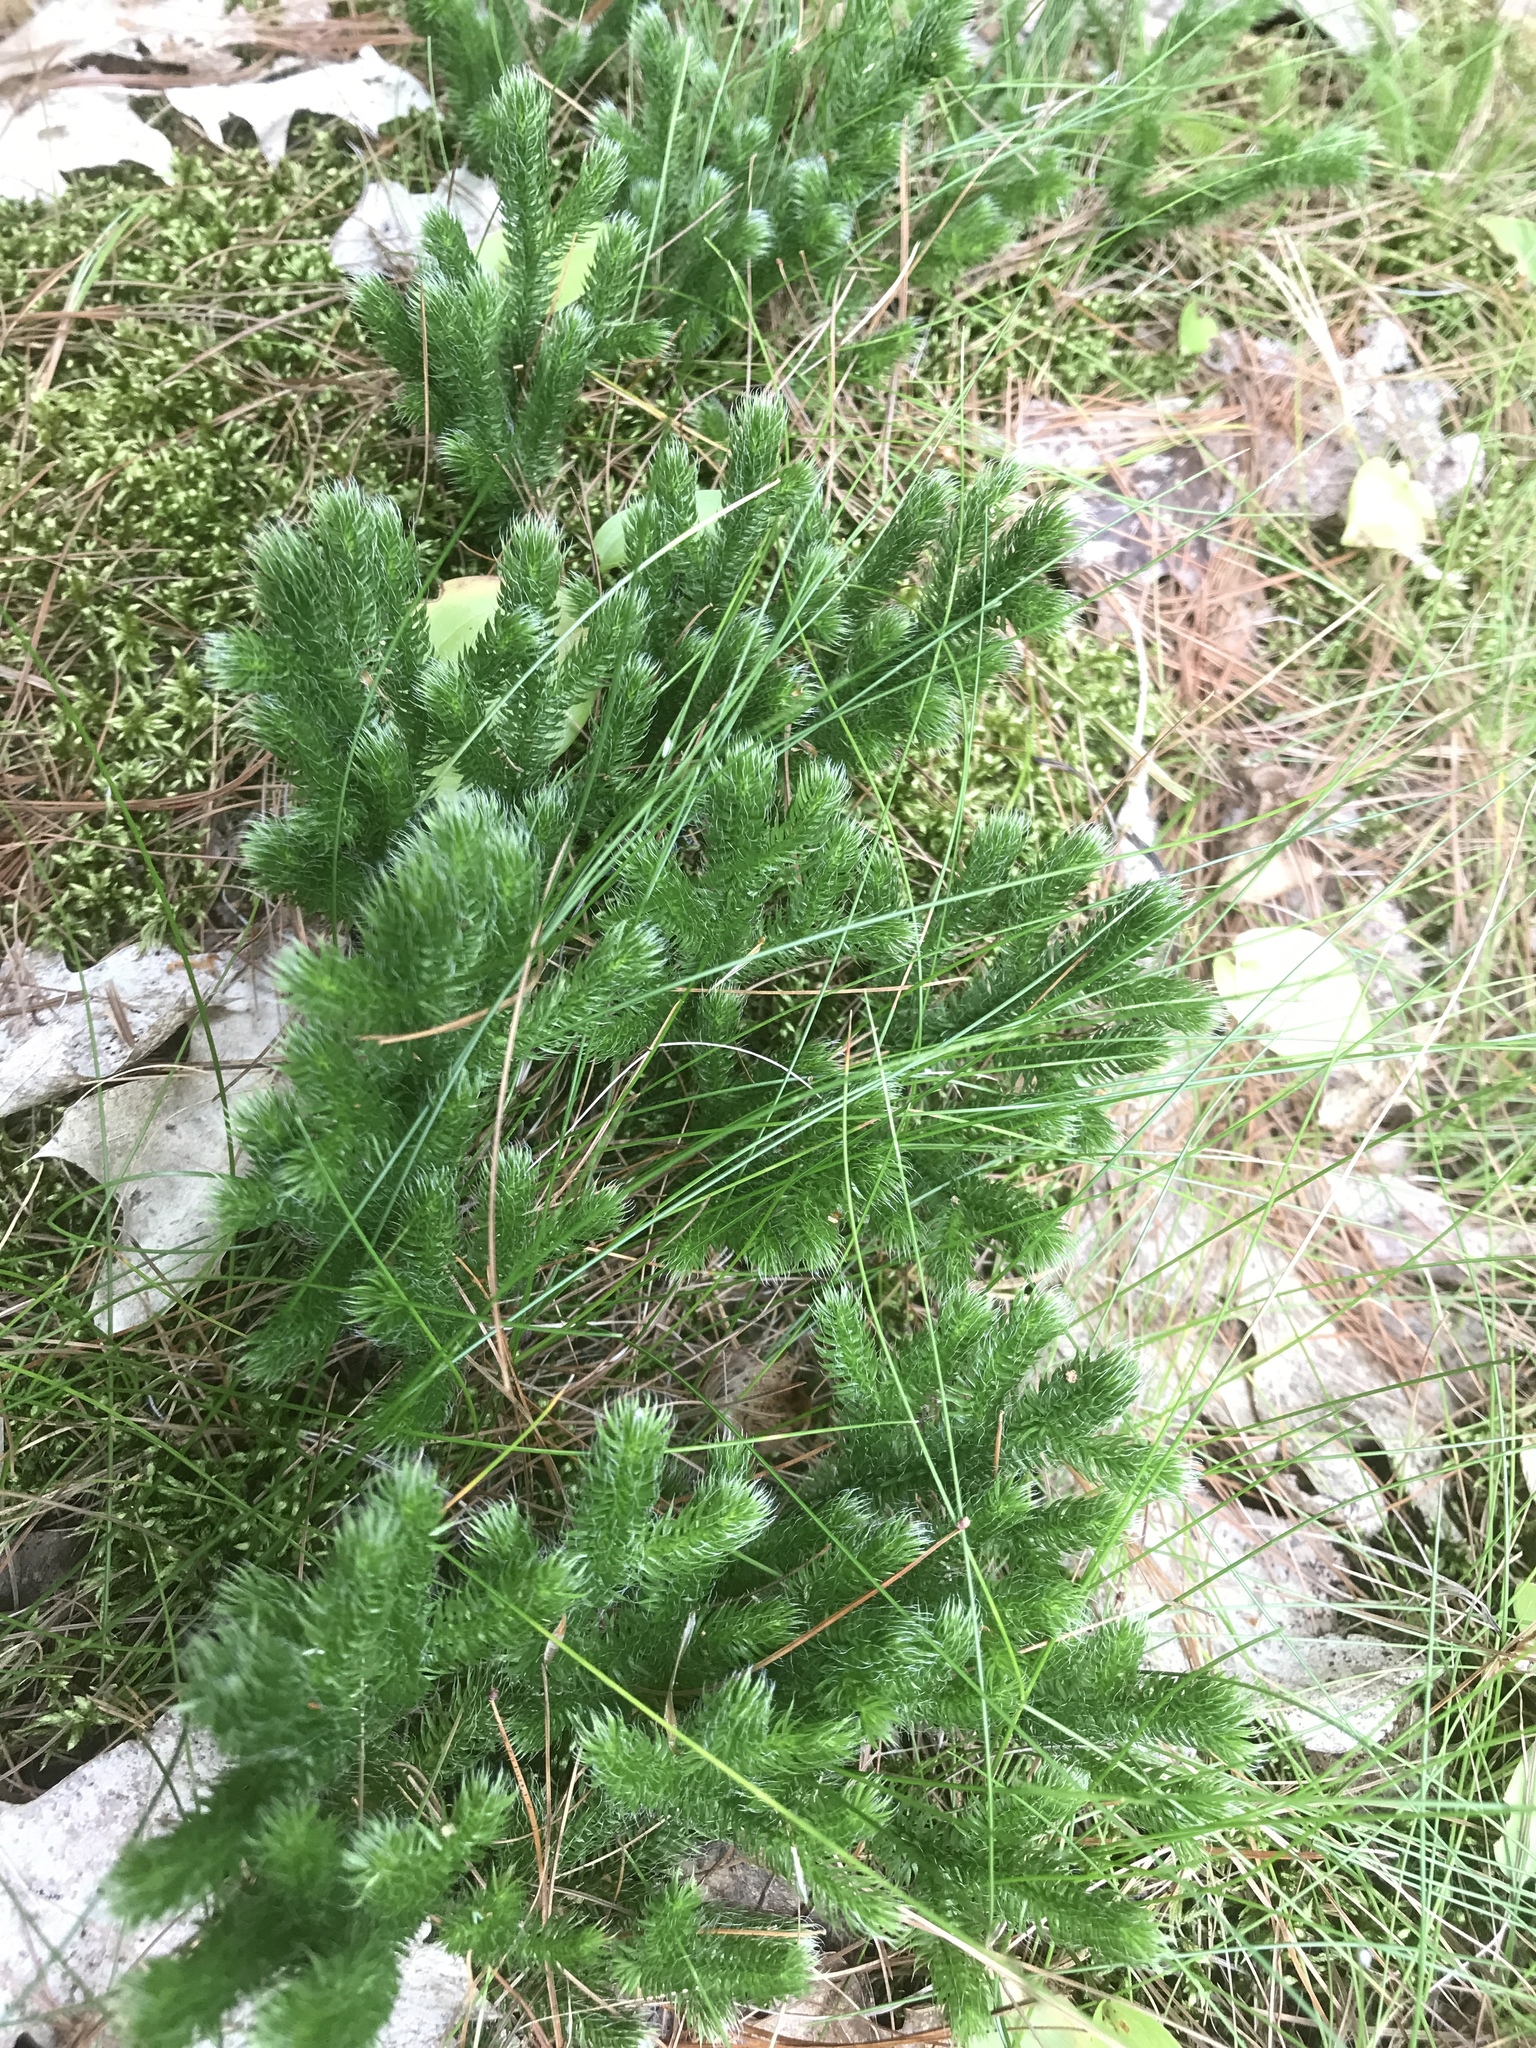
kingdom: Plantae
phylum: Tracheophyta
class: Lycopodiopsida
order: Lycopodiales
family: Lycopodiaceae
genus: Lycopodium
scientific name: Lycopodium clavatum
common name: Stag's-horn clubmoss
